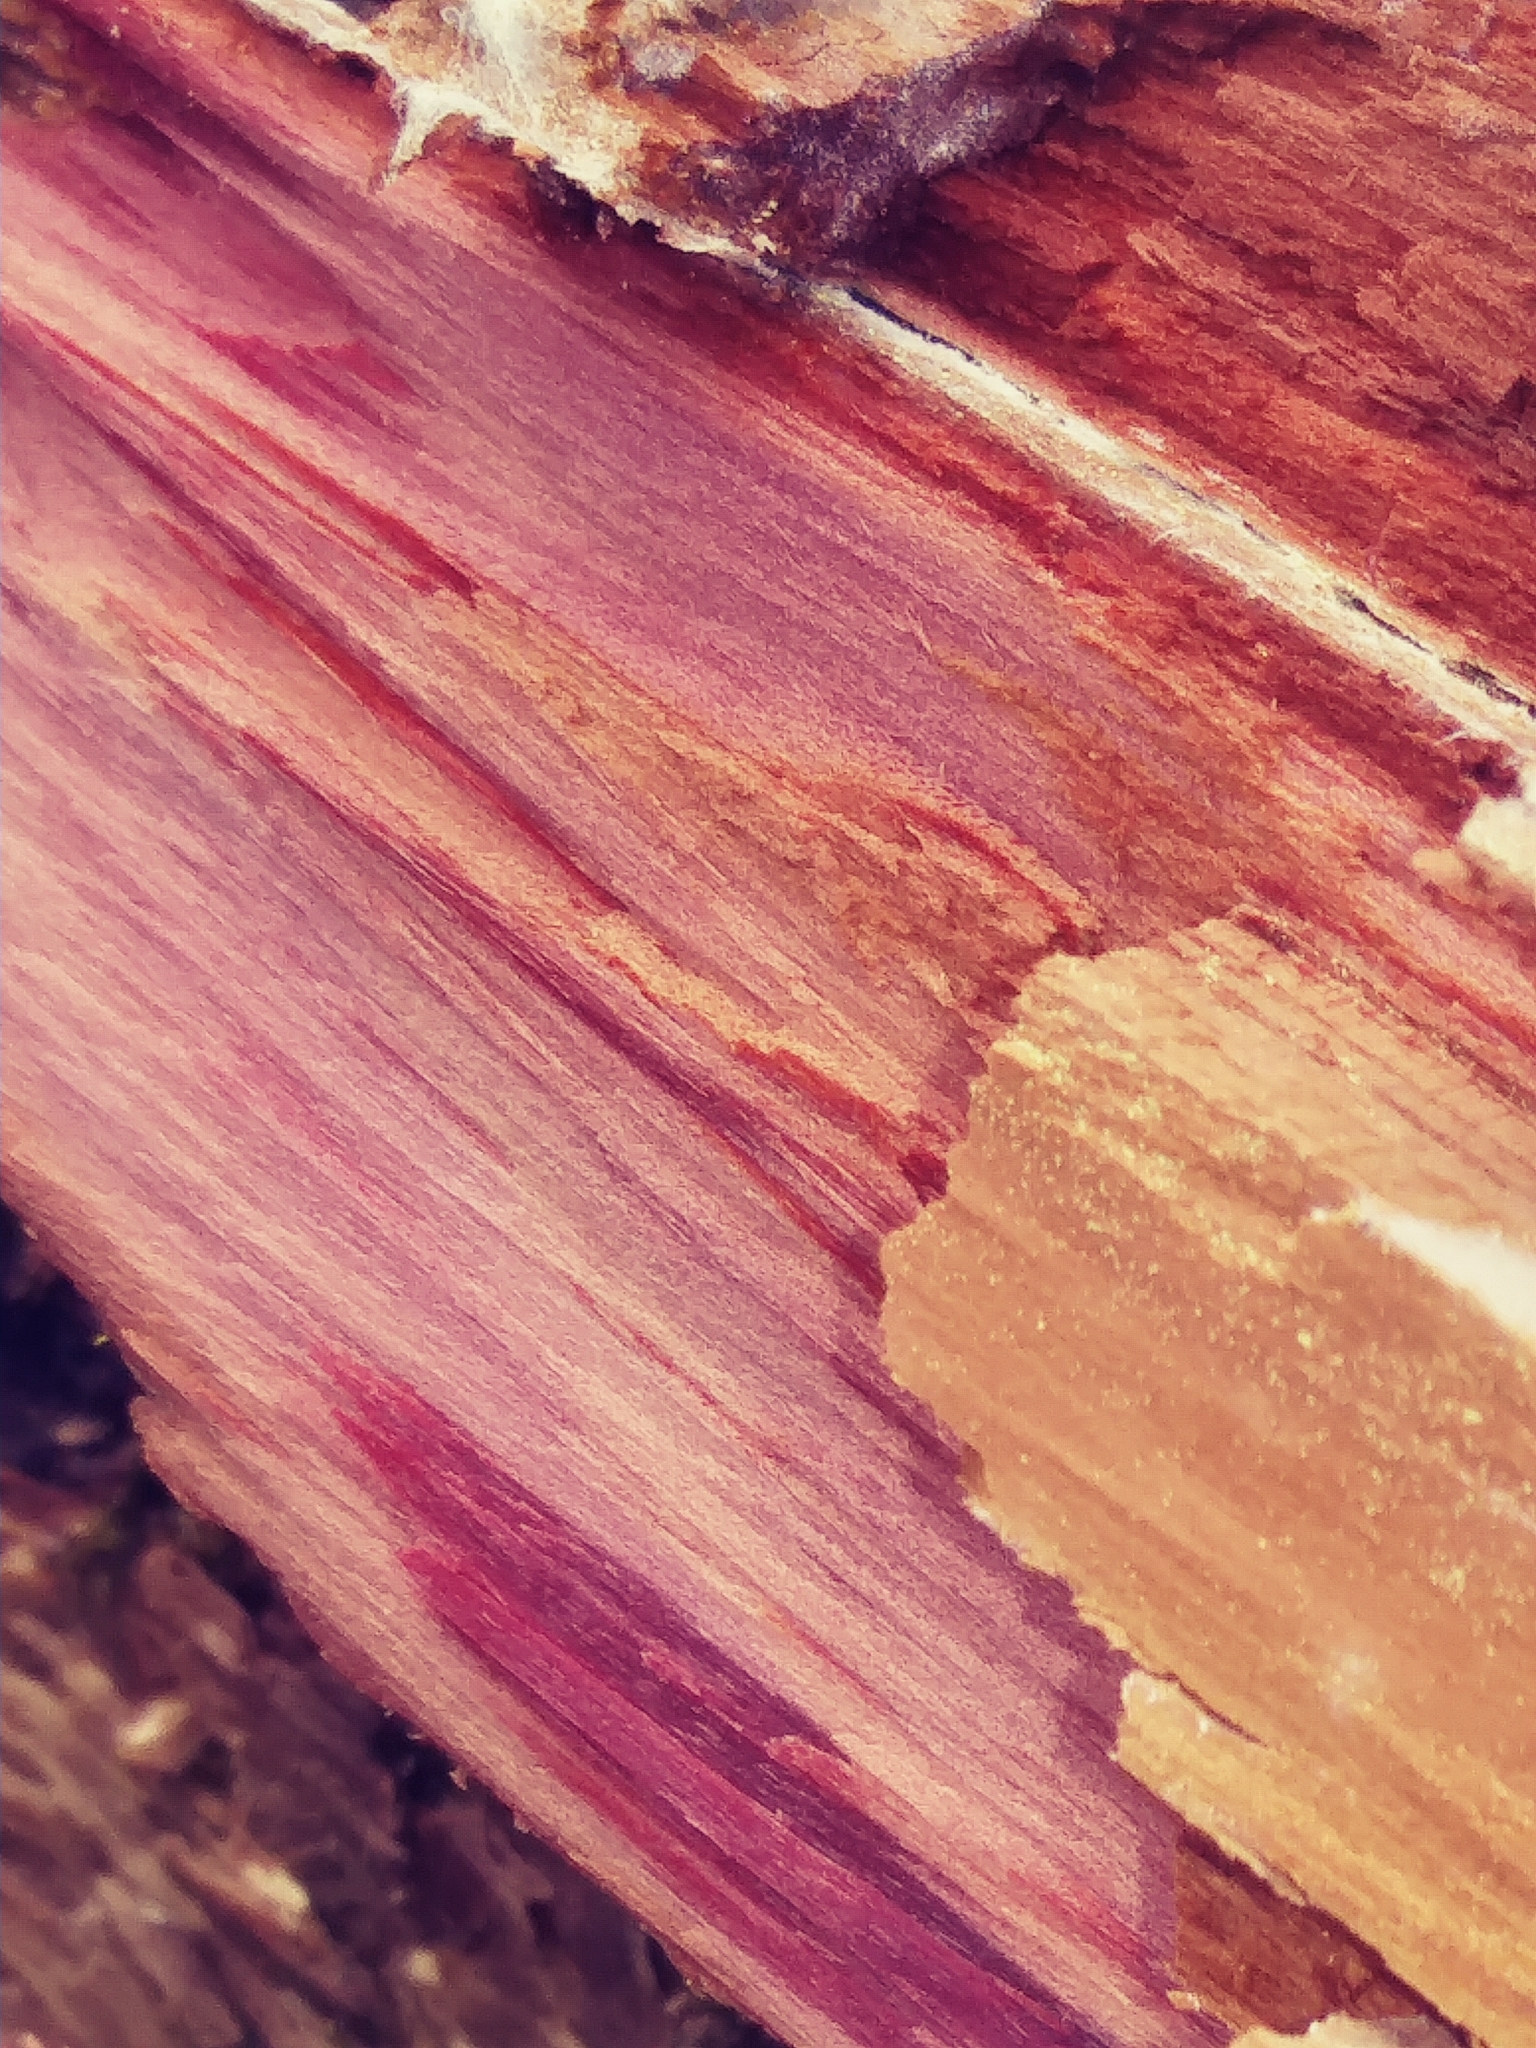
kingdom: Plantae
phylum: Tracheophyta
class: Pinopsida
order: Pinales
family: Cupressaceae
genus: Juniperus
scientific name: Juniperus virginiana
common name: Red juniper
